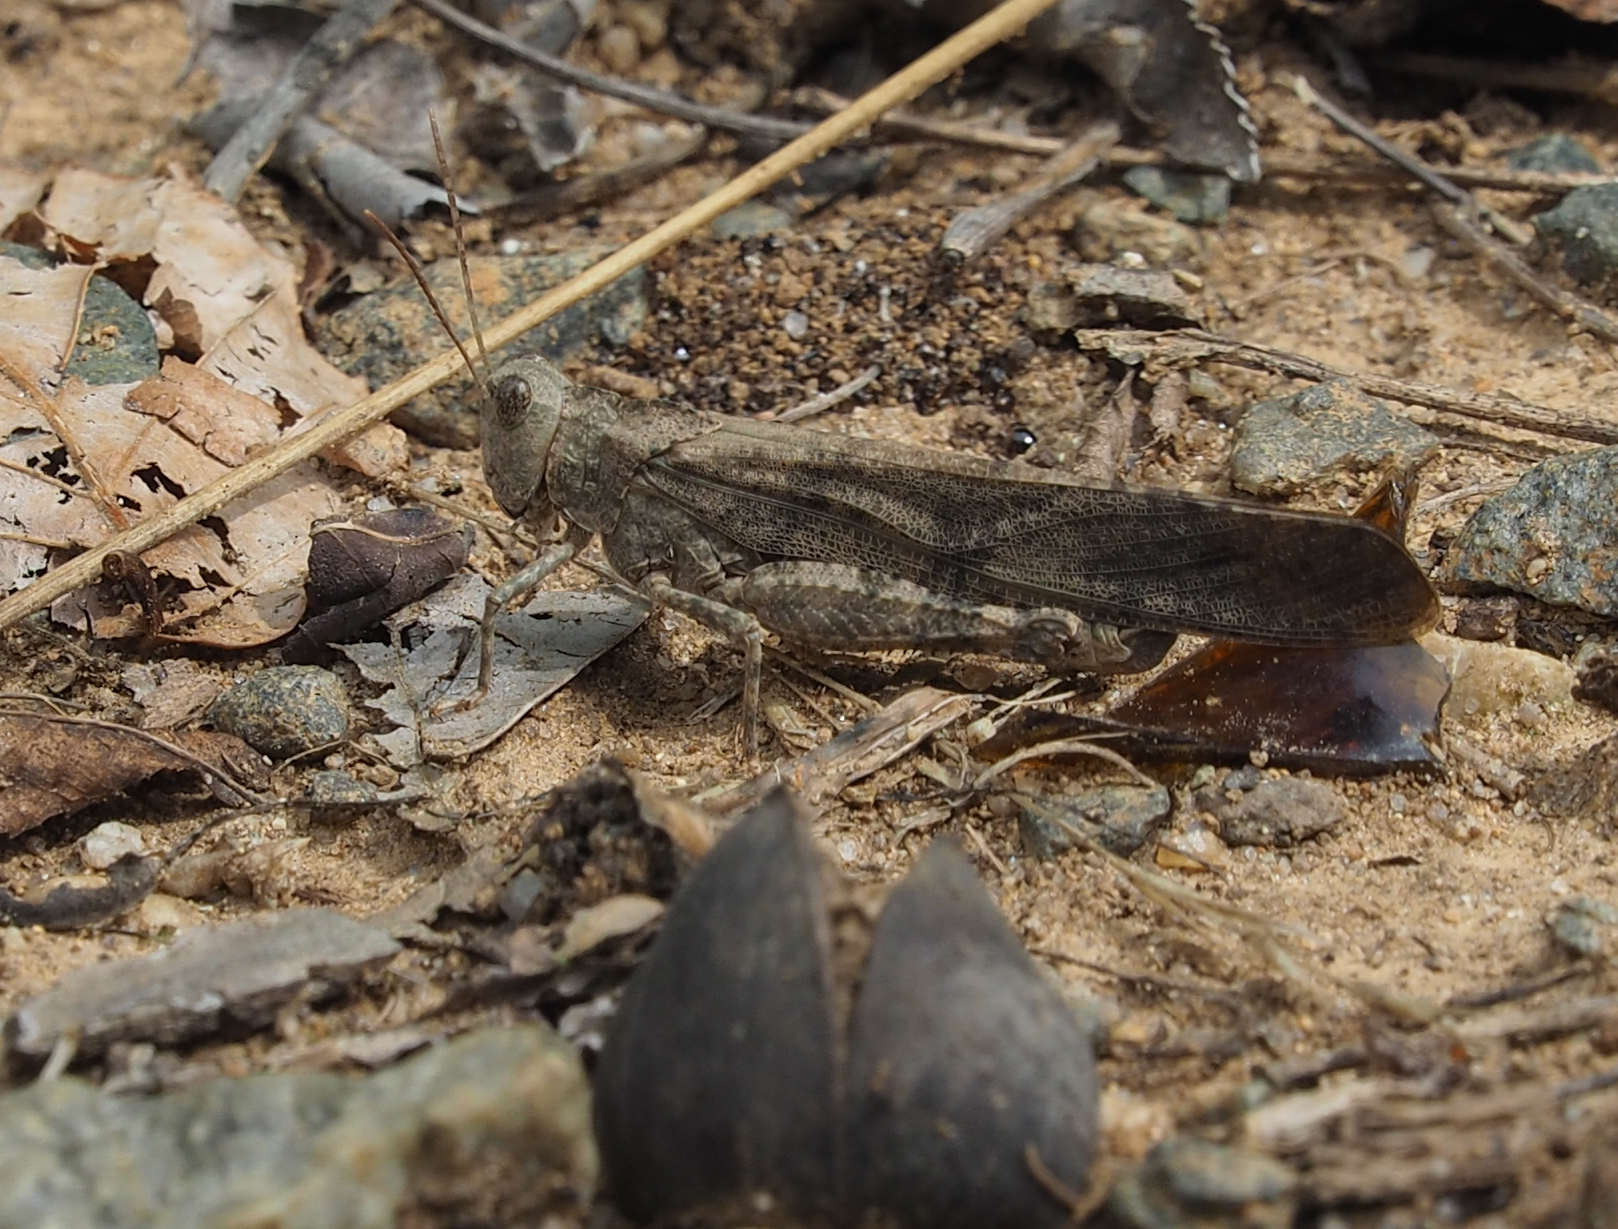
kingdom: Animalia
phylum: Arthropoda
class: Insecta
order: Orthoptera
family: Acrididae
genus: Dissosteira
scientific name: Dissosteira carolina
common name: Carolina grasshopper
